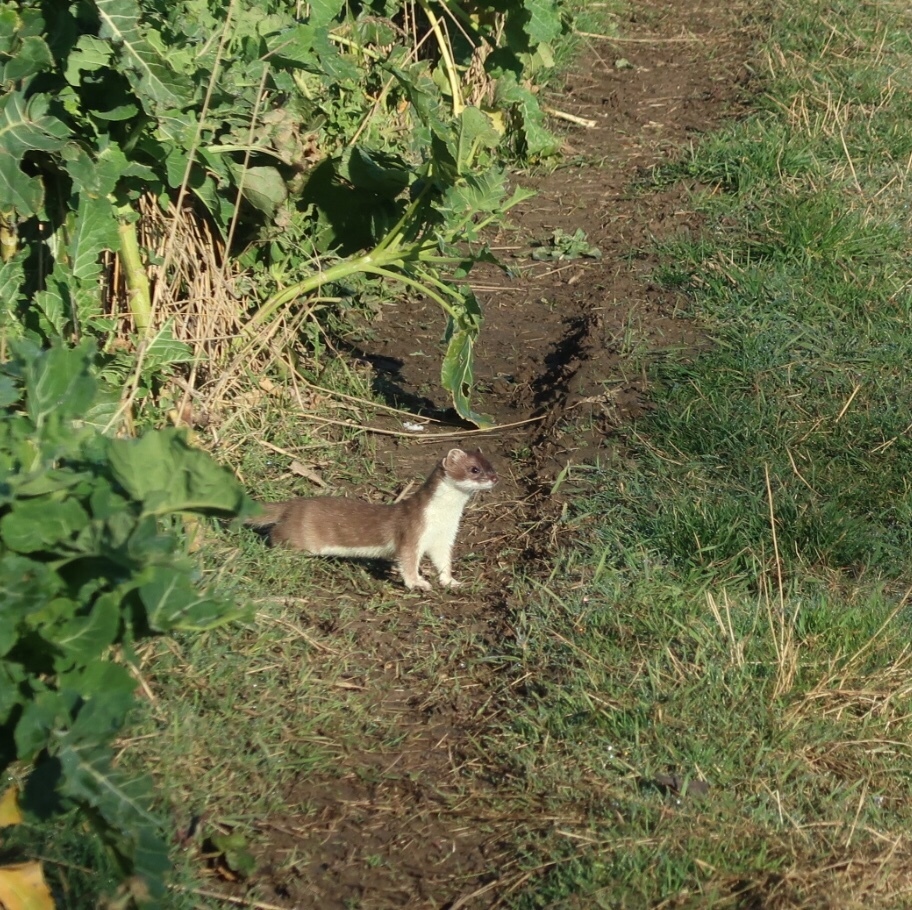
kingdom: Animalia
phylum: Chordata
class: Mammalia
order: Carnivora
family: Mustelidae
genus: Mustela
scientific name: Mustela erminea
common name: Stoat
